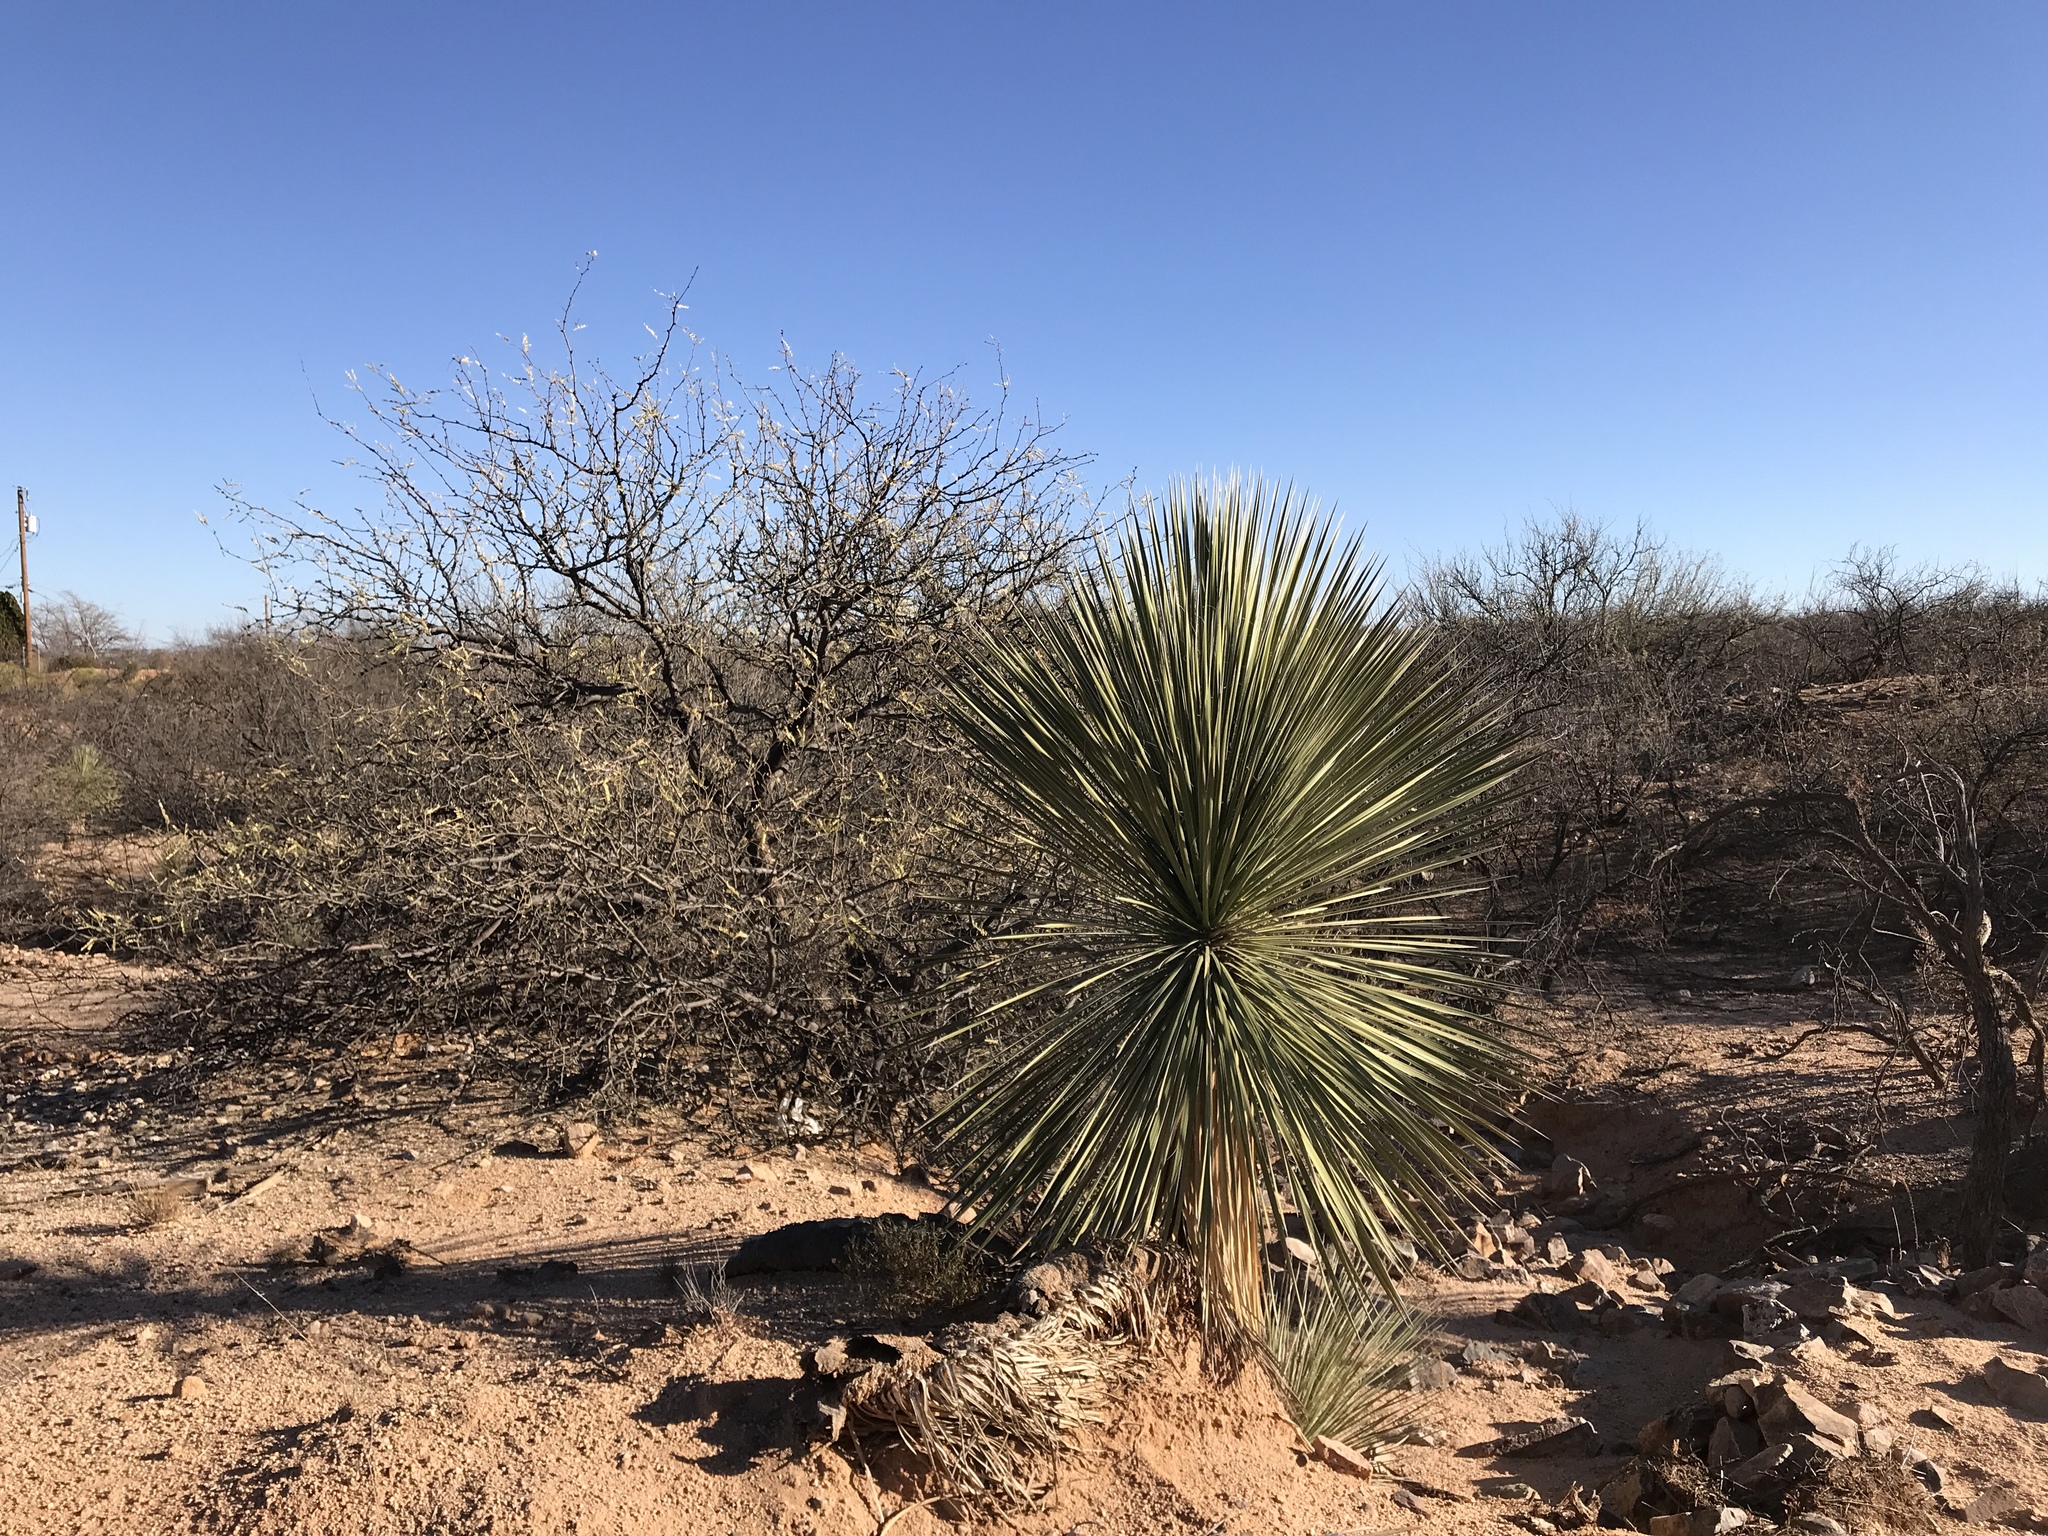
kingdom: Plantae
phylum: Tracheophyta
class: Liliopsida
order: Asparagales
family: Asparagaceae
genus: Yucca
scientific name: Yucca elata
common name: Palmella
